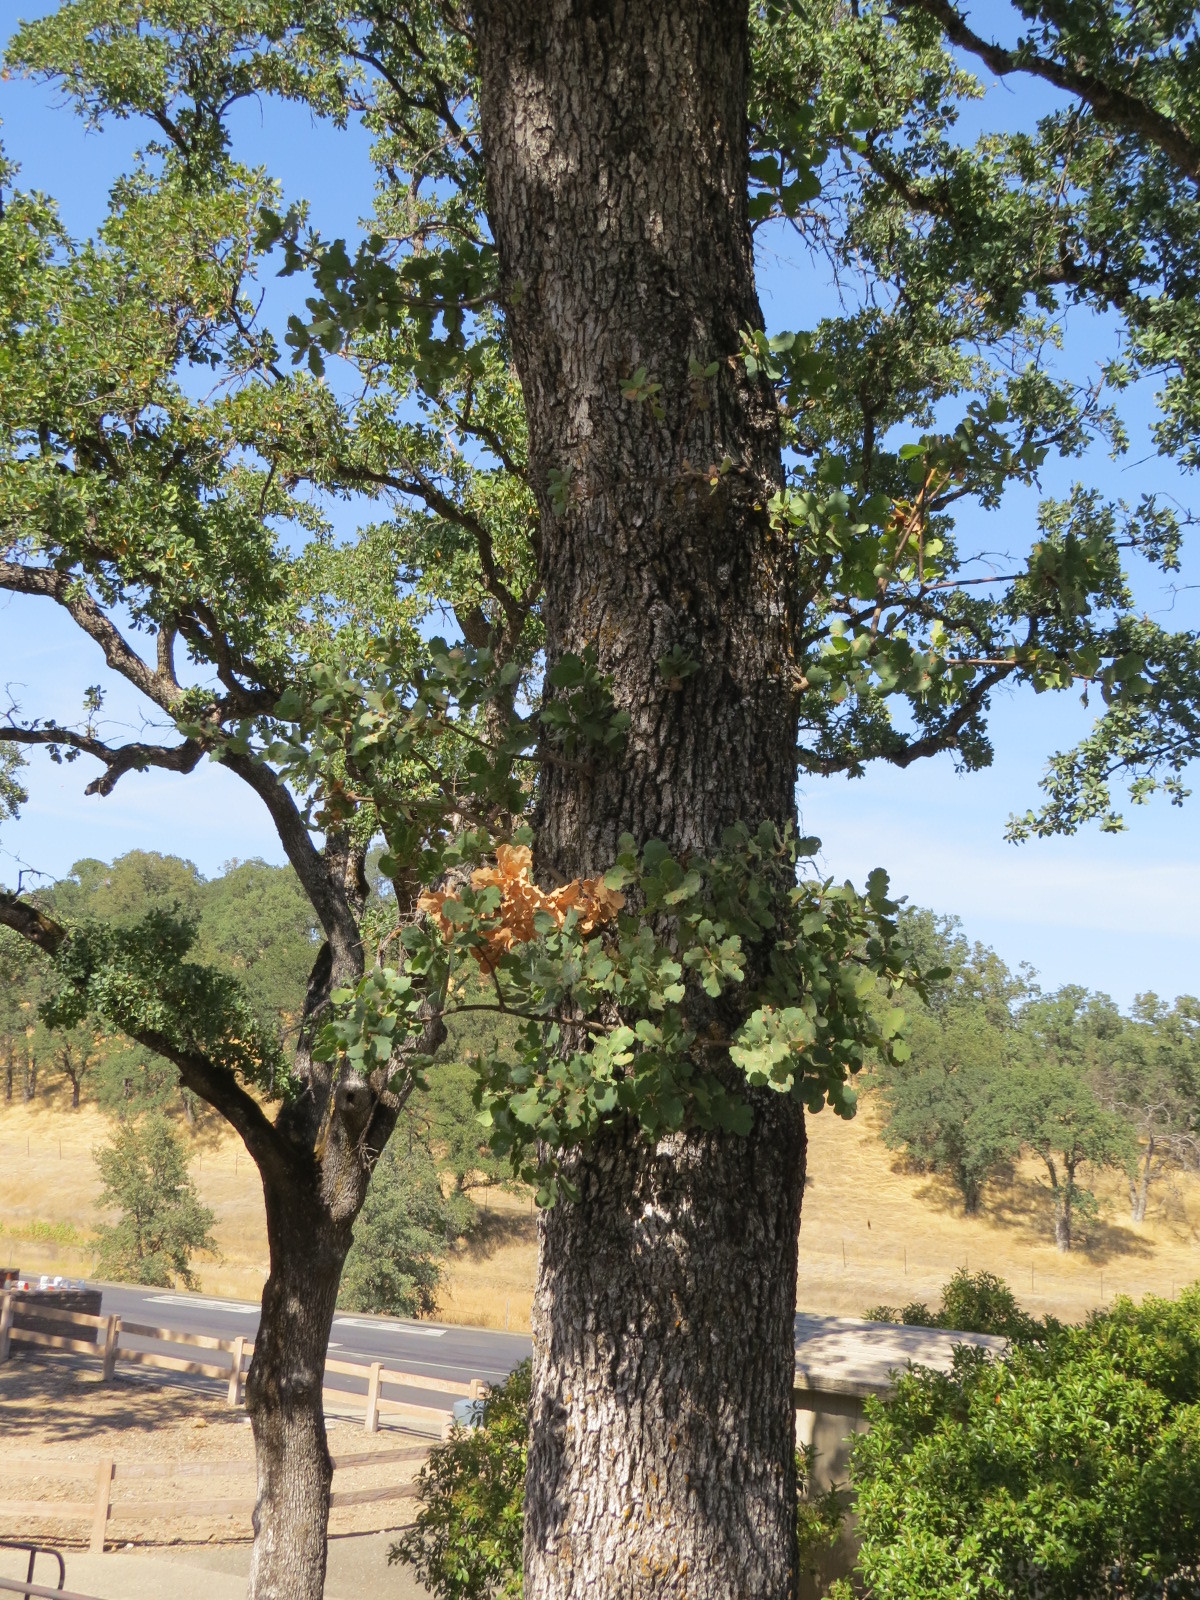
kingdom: Plantae
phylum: Tracheophyta
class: Magnoliopsida
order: Fagales
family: Fagaceae
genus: Quercus
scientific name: Quercus douglasii
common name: Blue oak
